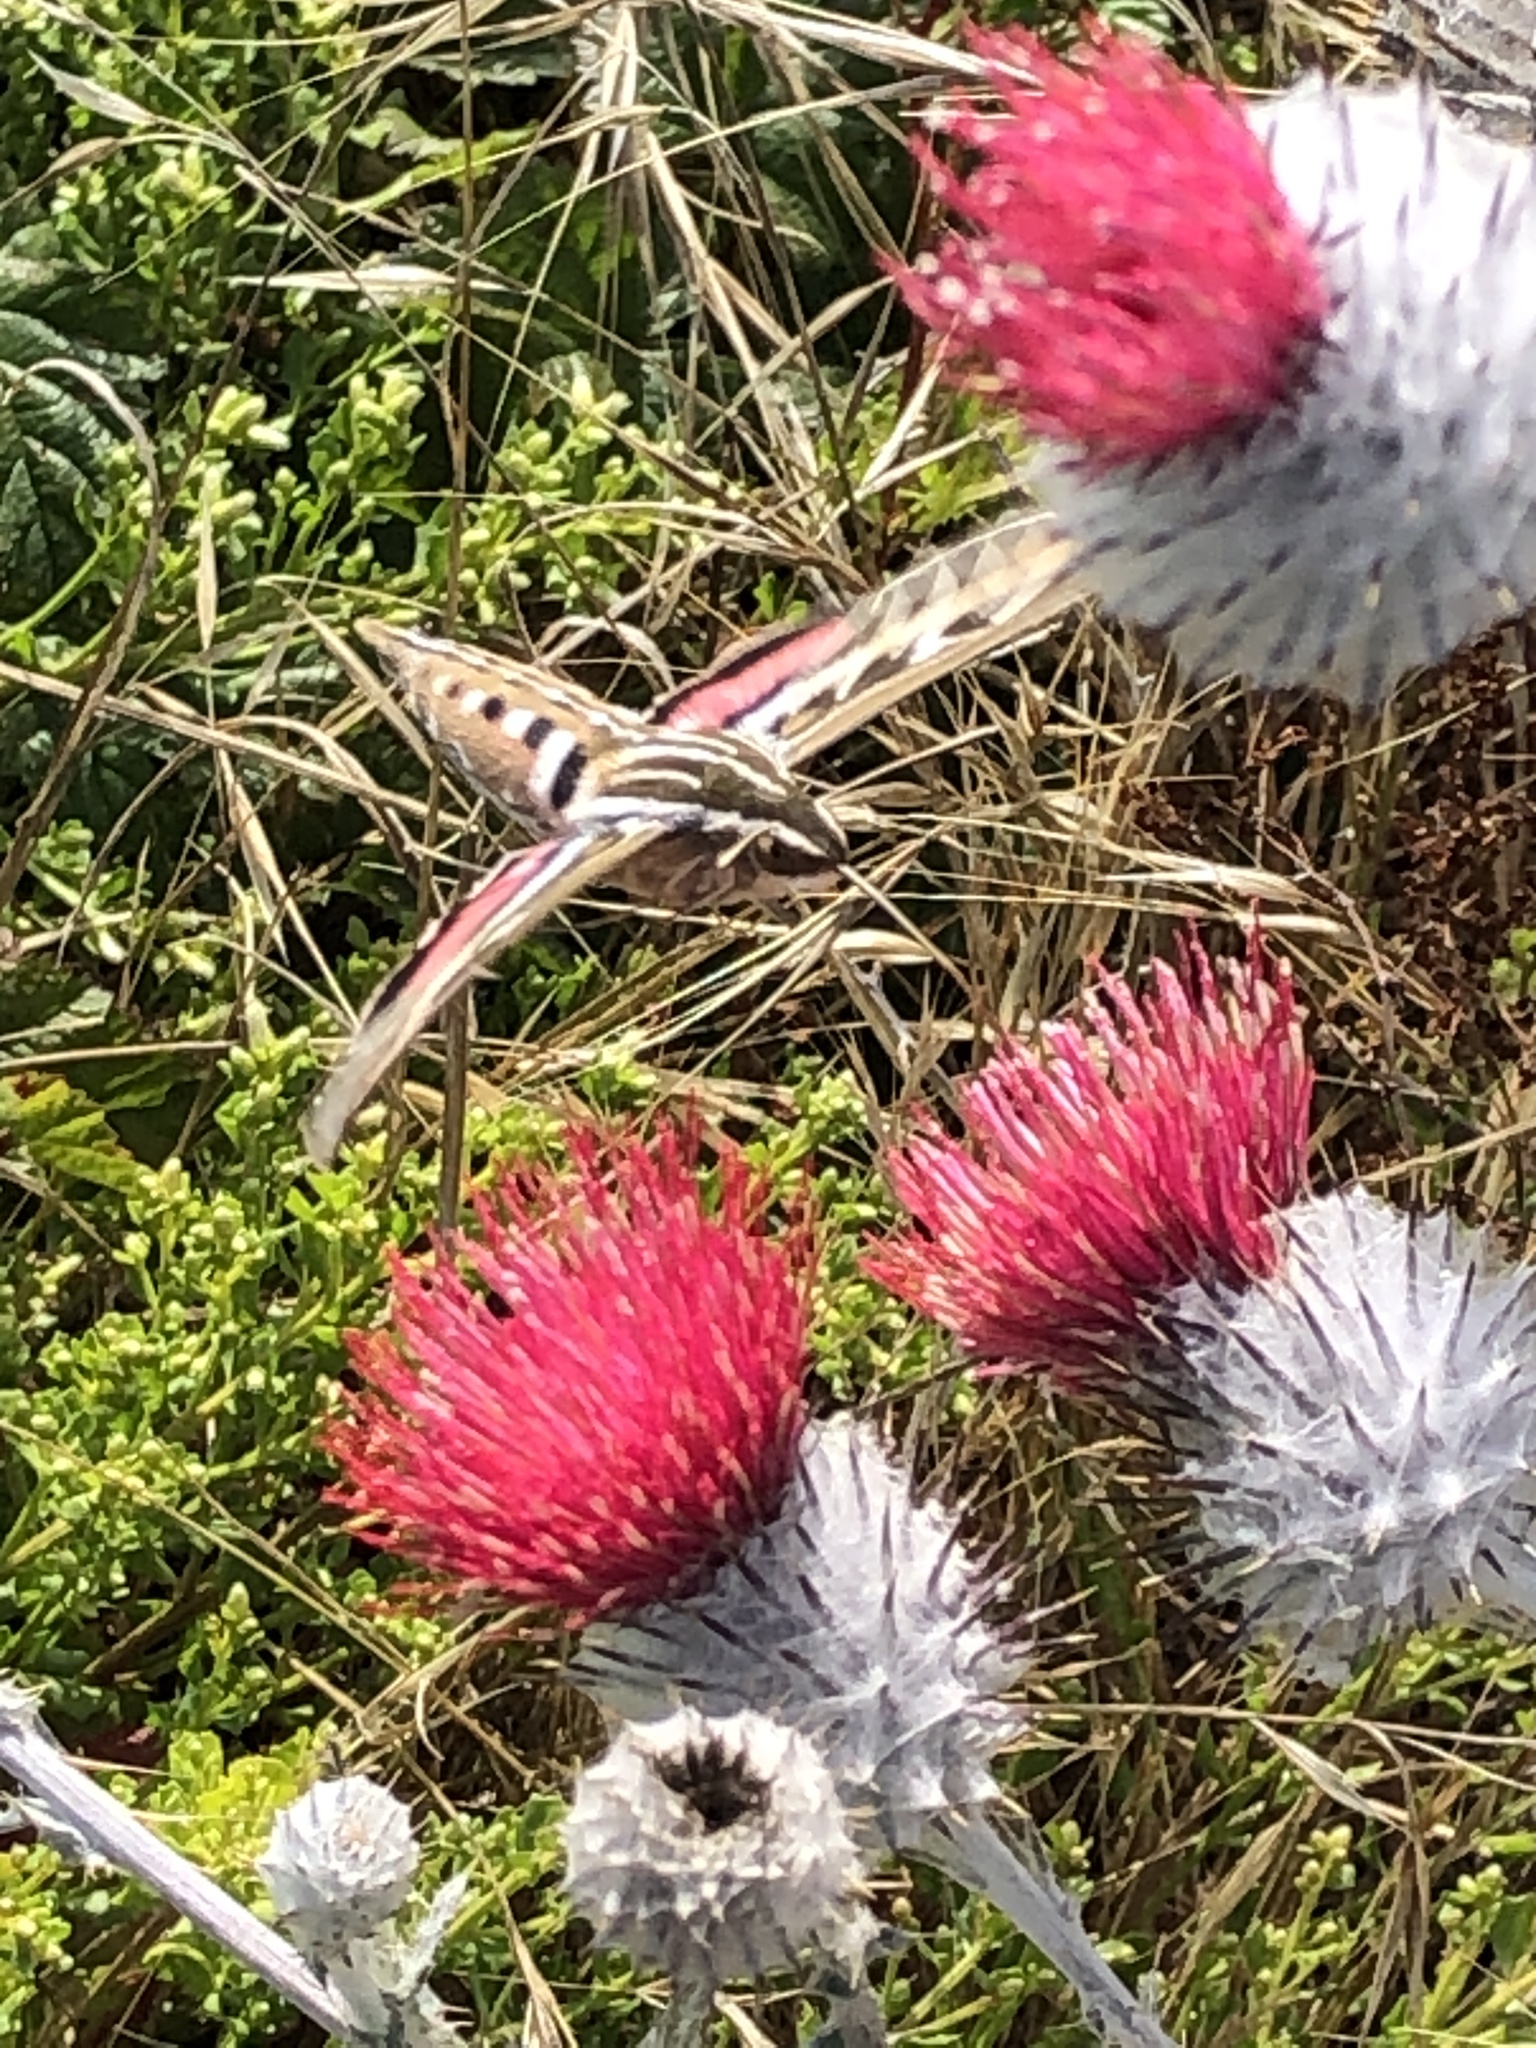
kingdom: Animalia
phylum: Arthropoda
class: Insecta
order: Lepidoptera
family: Sphingidae
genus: Hyles
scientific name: Hyles lineata
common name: White-lined sphinx
